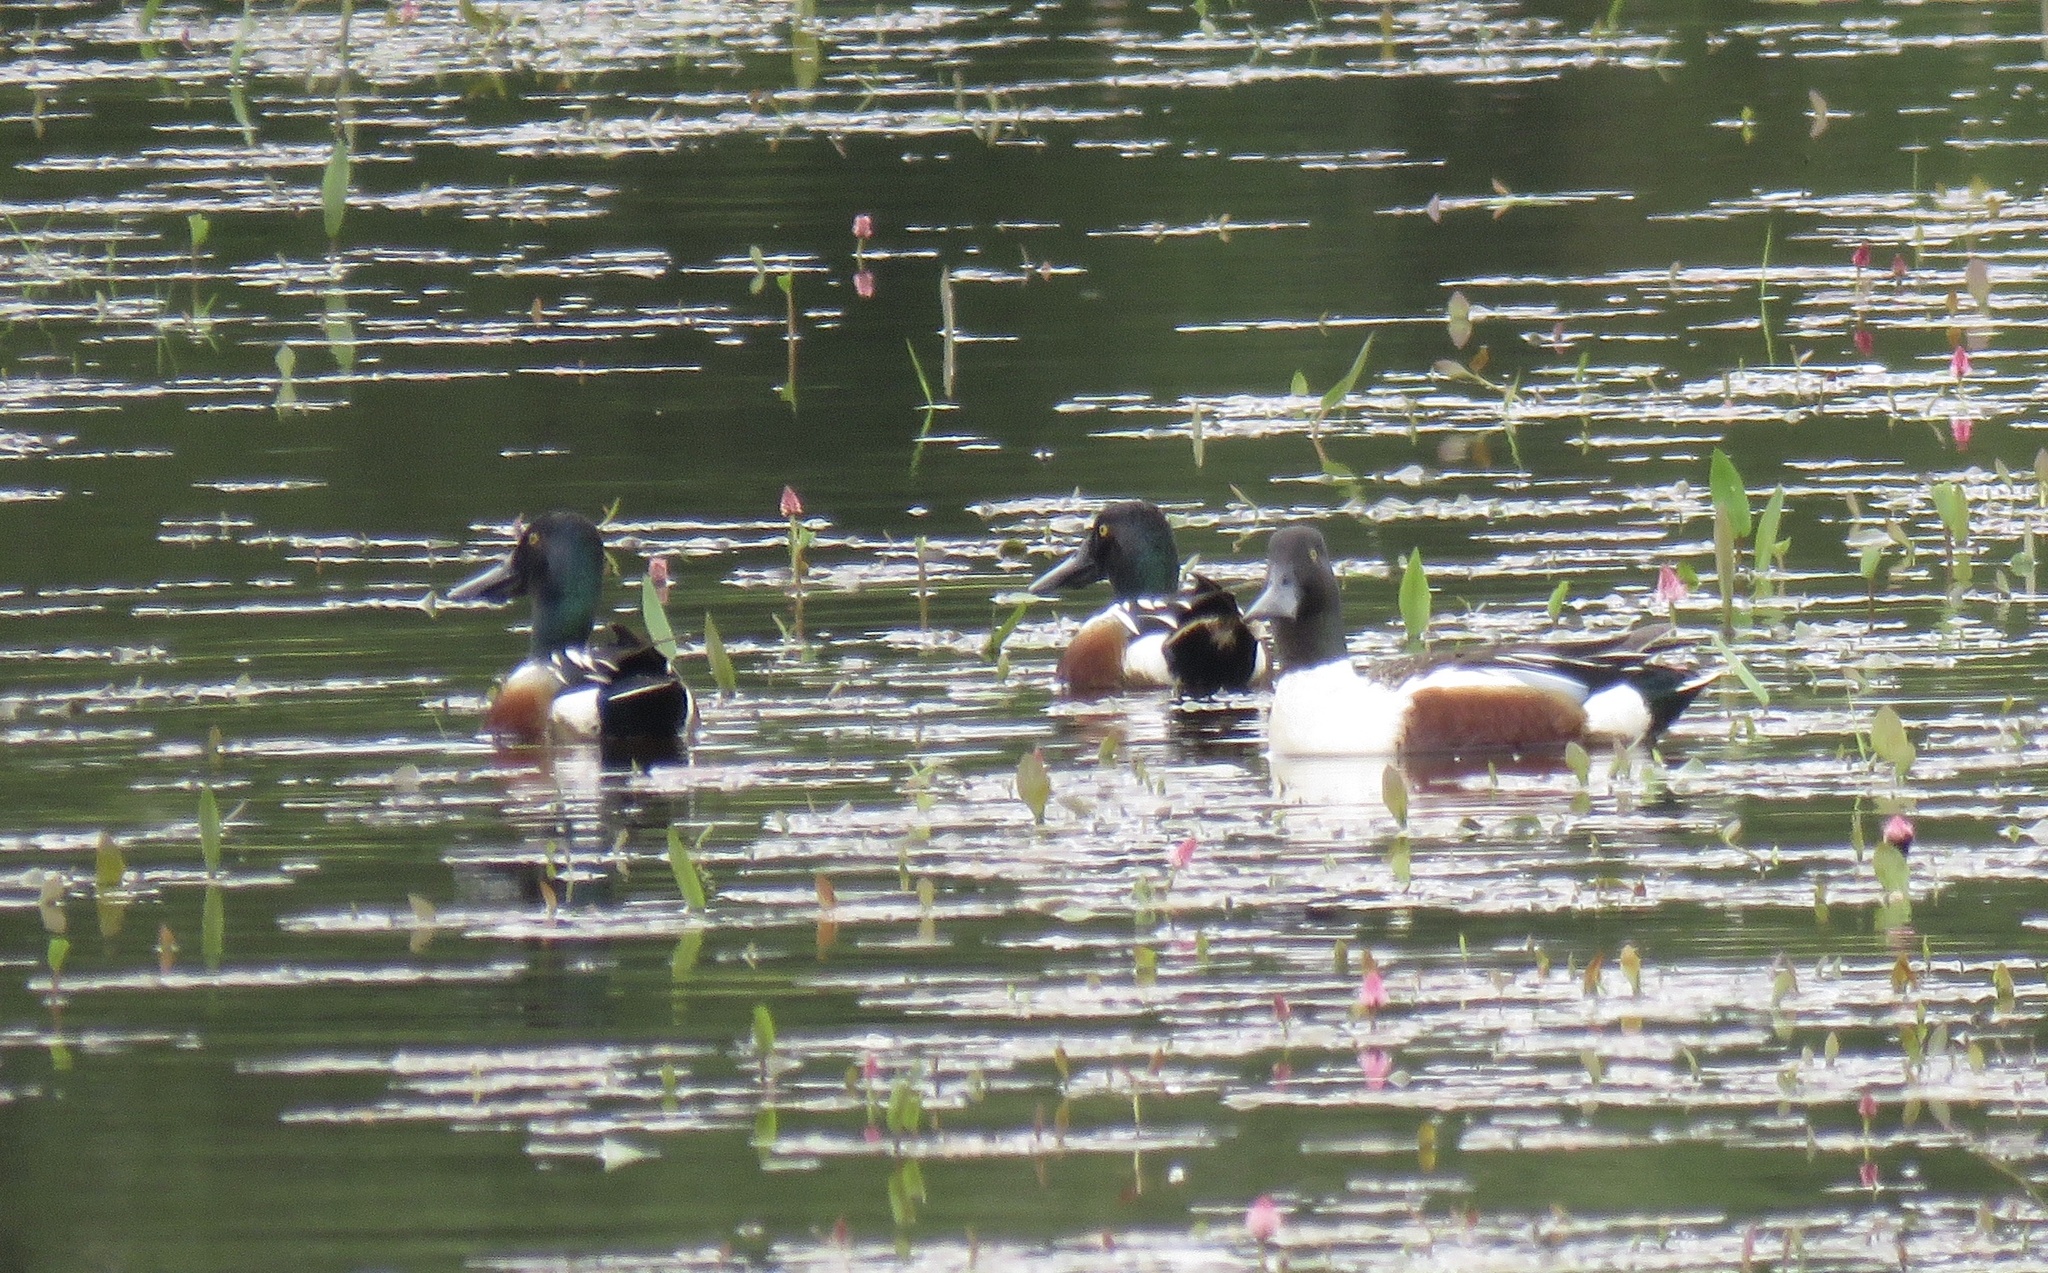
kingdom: Animalia
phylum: Chordata
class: Aves
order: Anseriformes
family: Anatidae
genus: Spatula
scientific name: Spatula clypeata
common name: Northern shoveler
